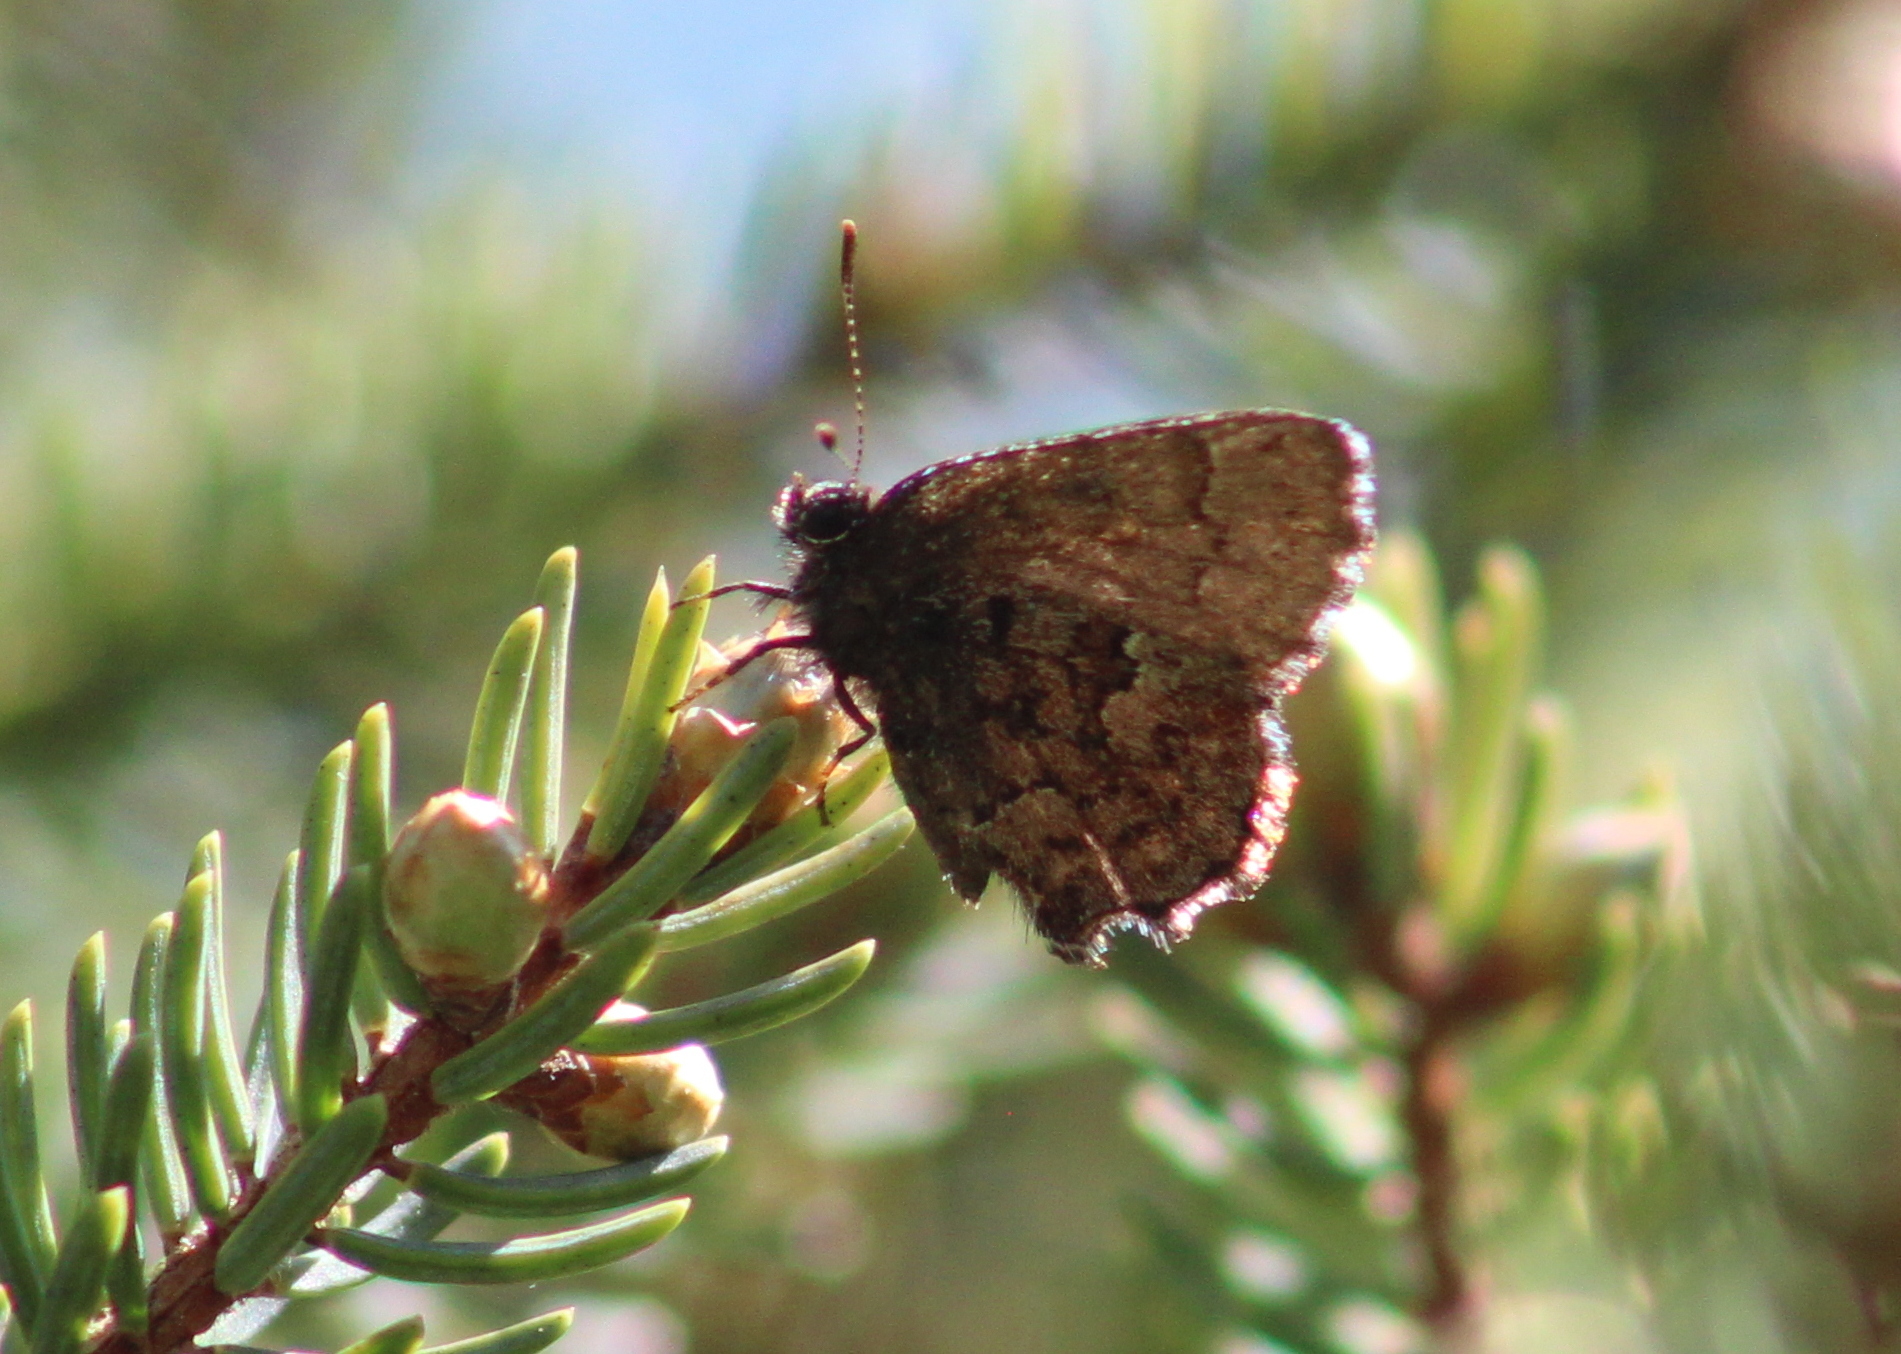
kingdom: Animalia
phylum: Arthropoda
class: Insecta
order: Lepidoptera
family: Lycaenidae
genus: Incisalia
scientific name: Incisalia lanoraieensis
